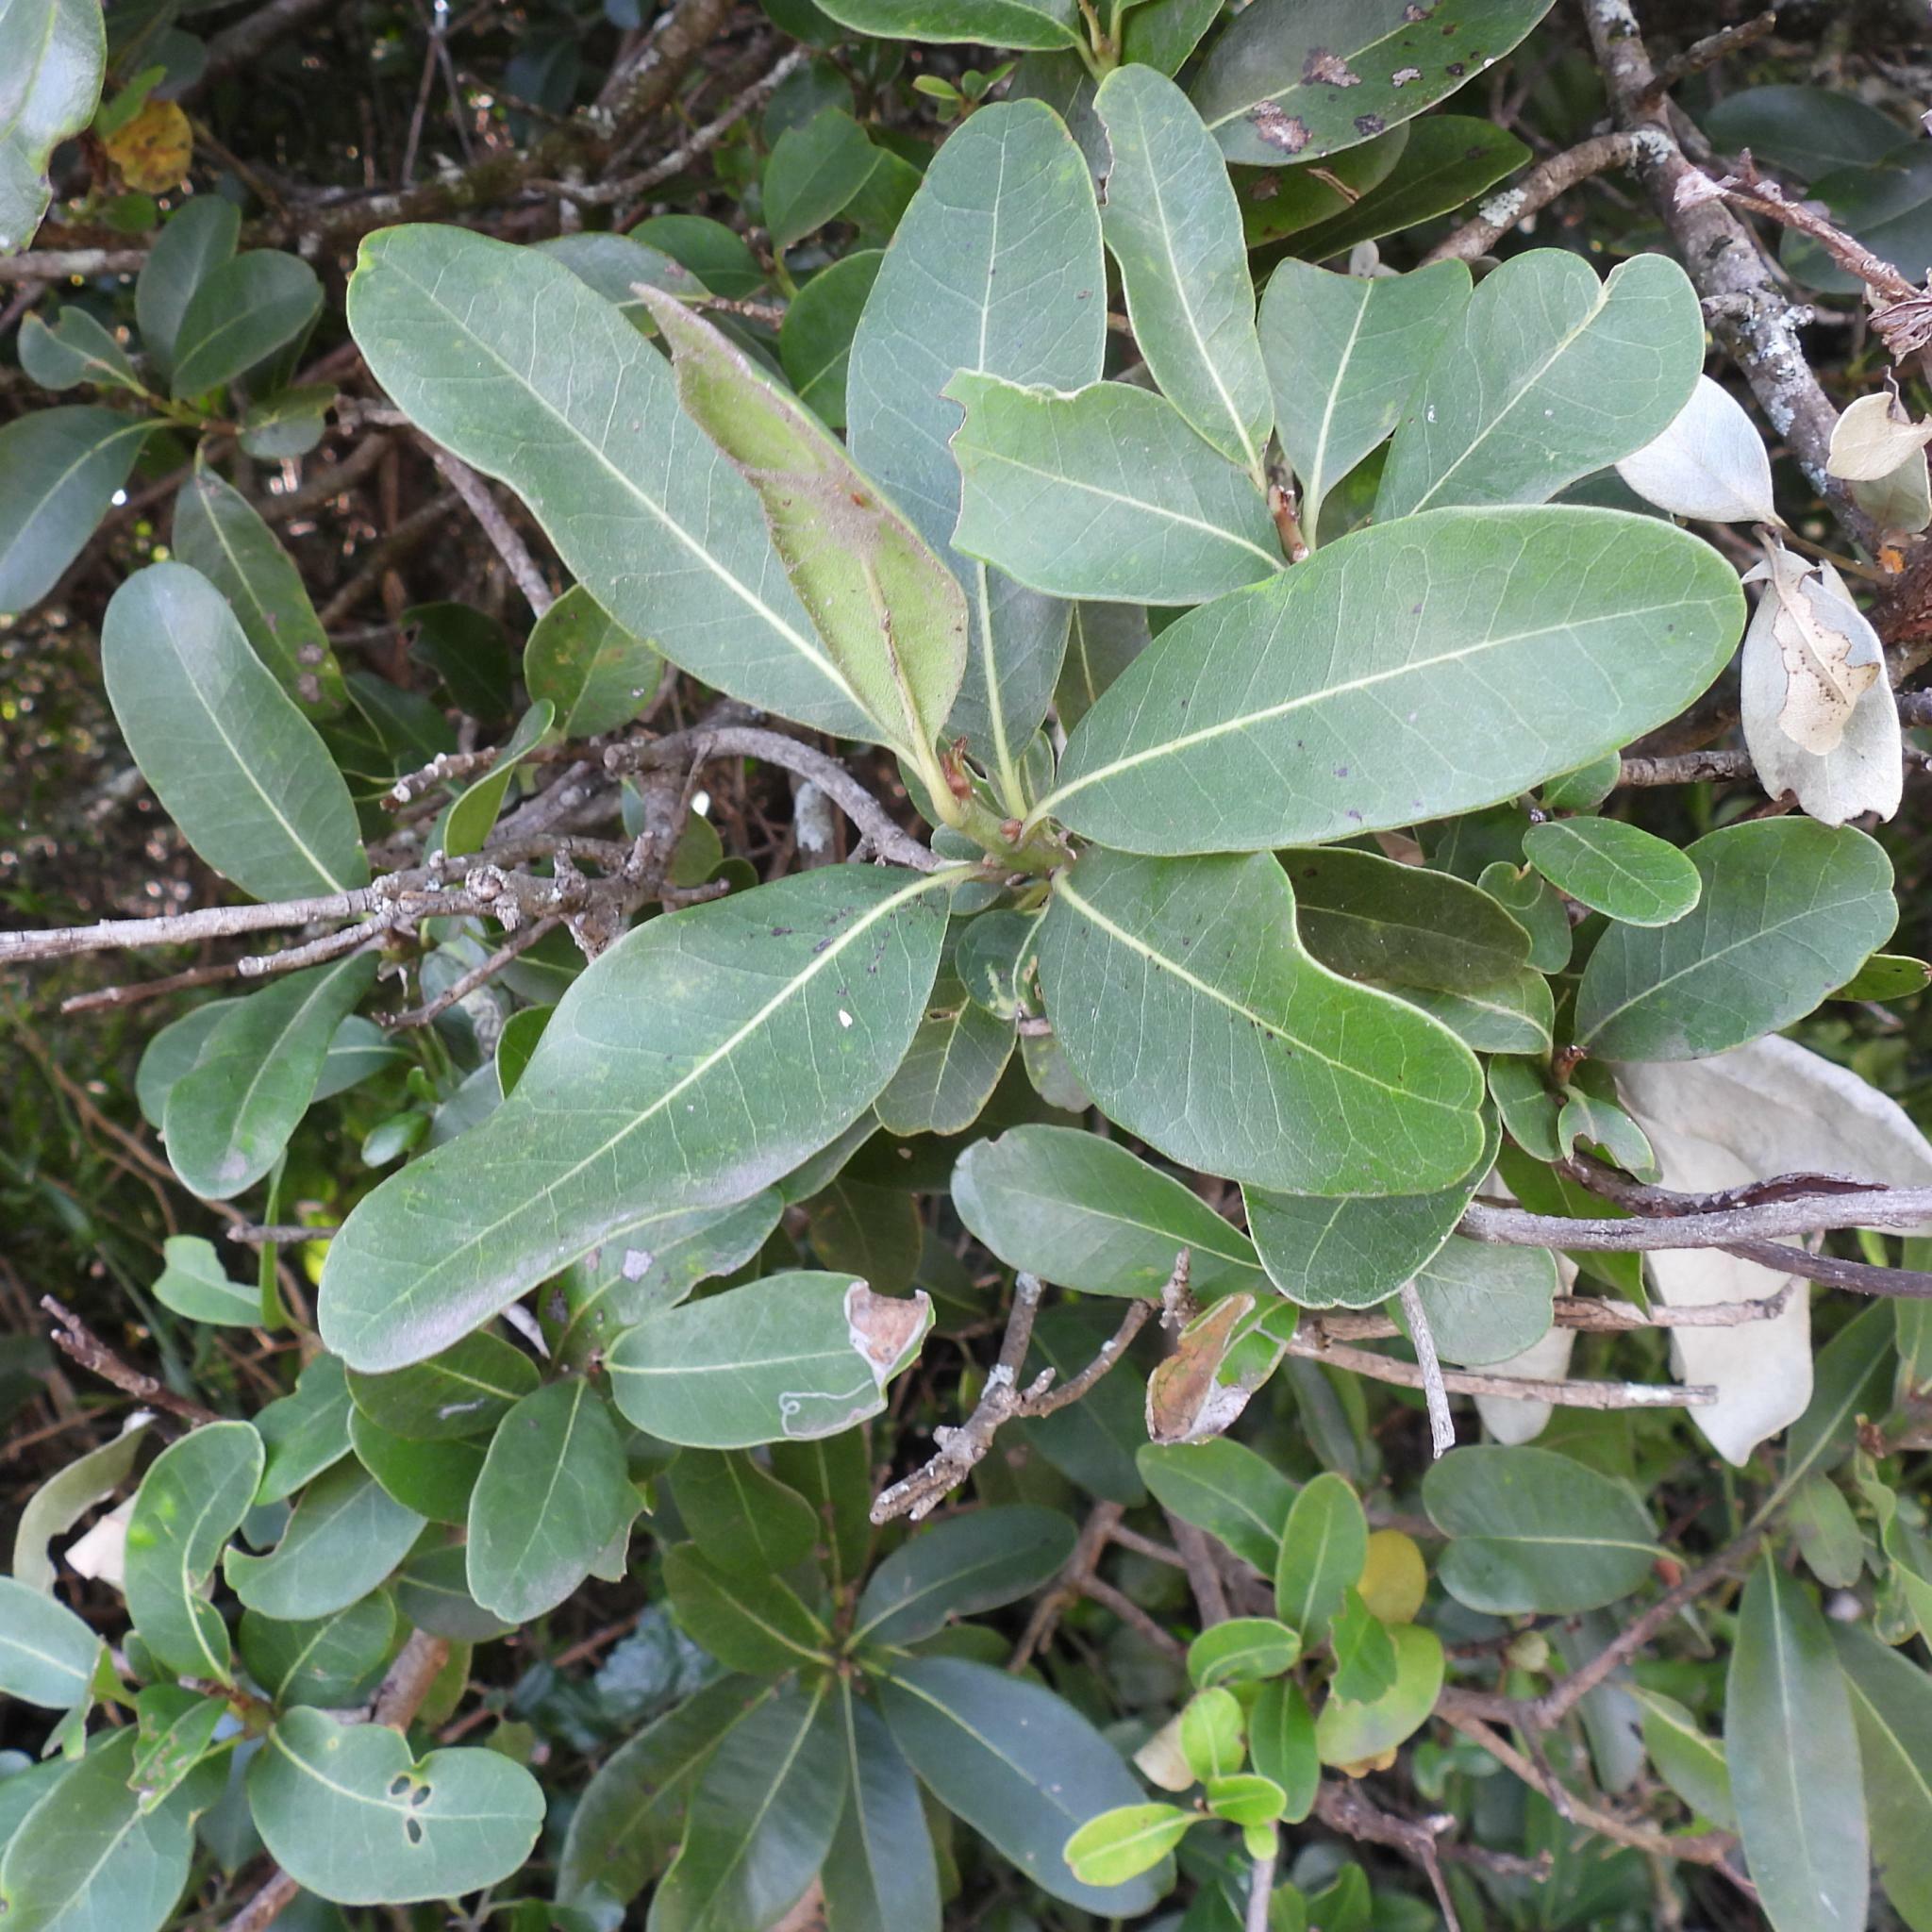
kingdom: Plantae
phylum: Tracheophyta
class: Magnoliopsida
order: Ericales
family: Sapotaceae
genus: Sideroxylon
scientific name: Sideroxylon inerme
